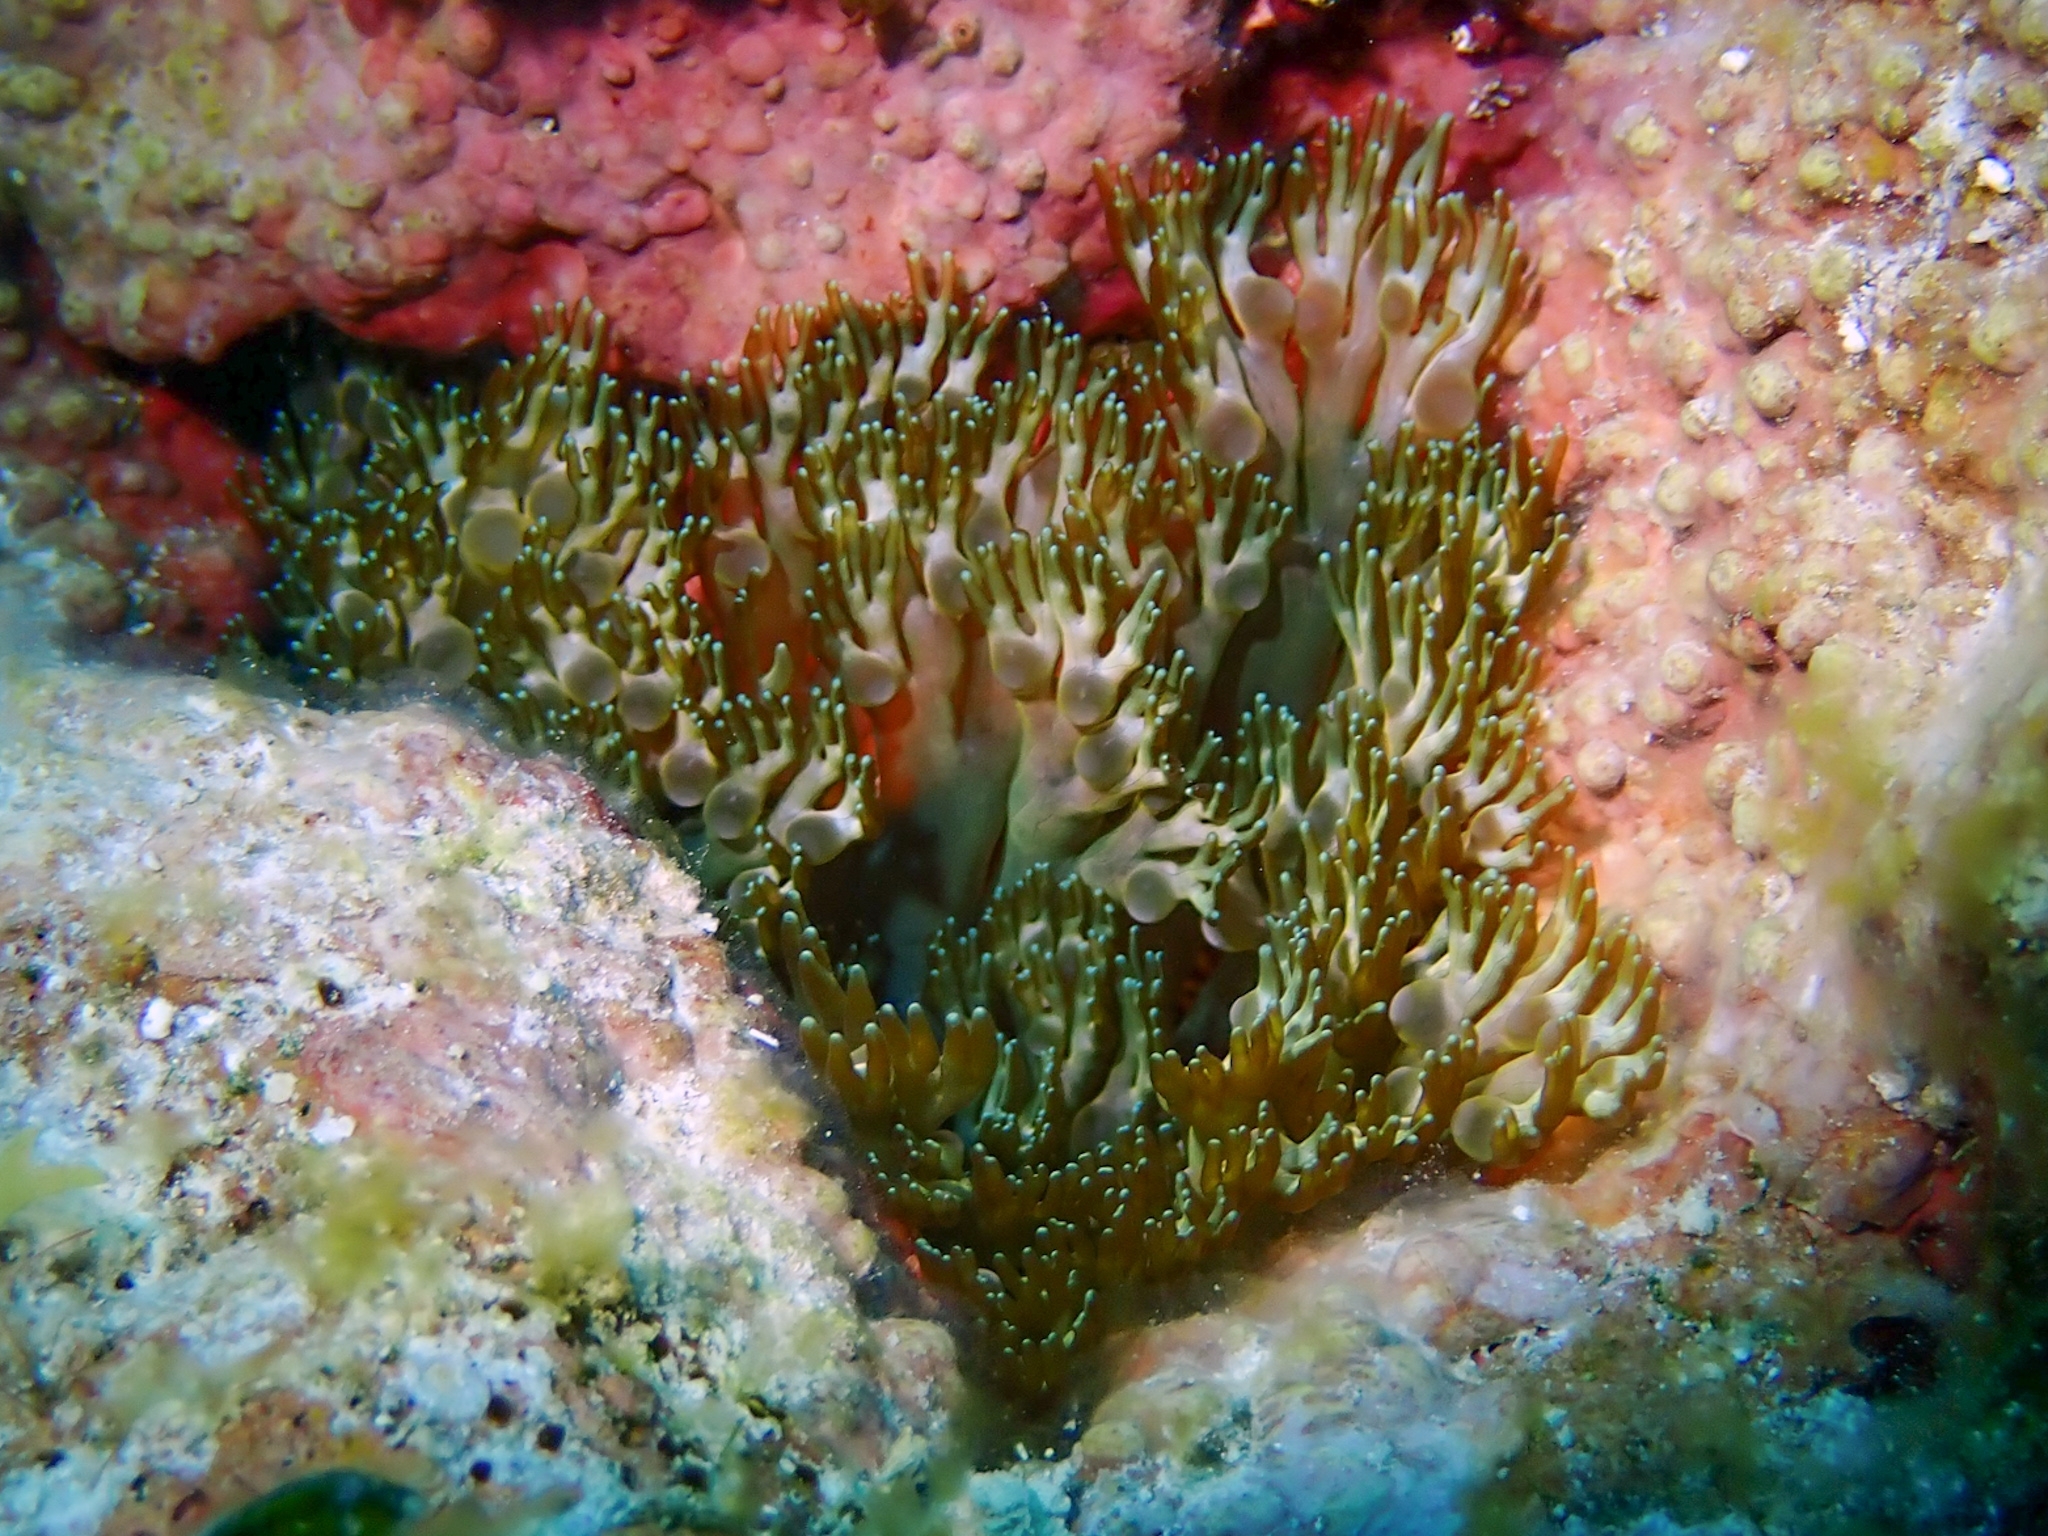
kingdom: Animalia
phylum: Cnidaria
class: Anthozoa
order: Actiniaria
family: Aliciidae
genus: Lebrunia
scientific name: Lebrunia neglecta
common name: Branching anemone
